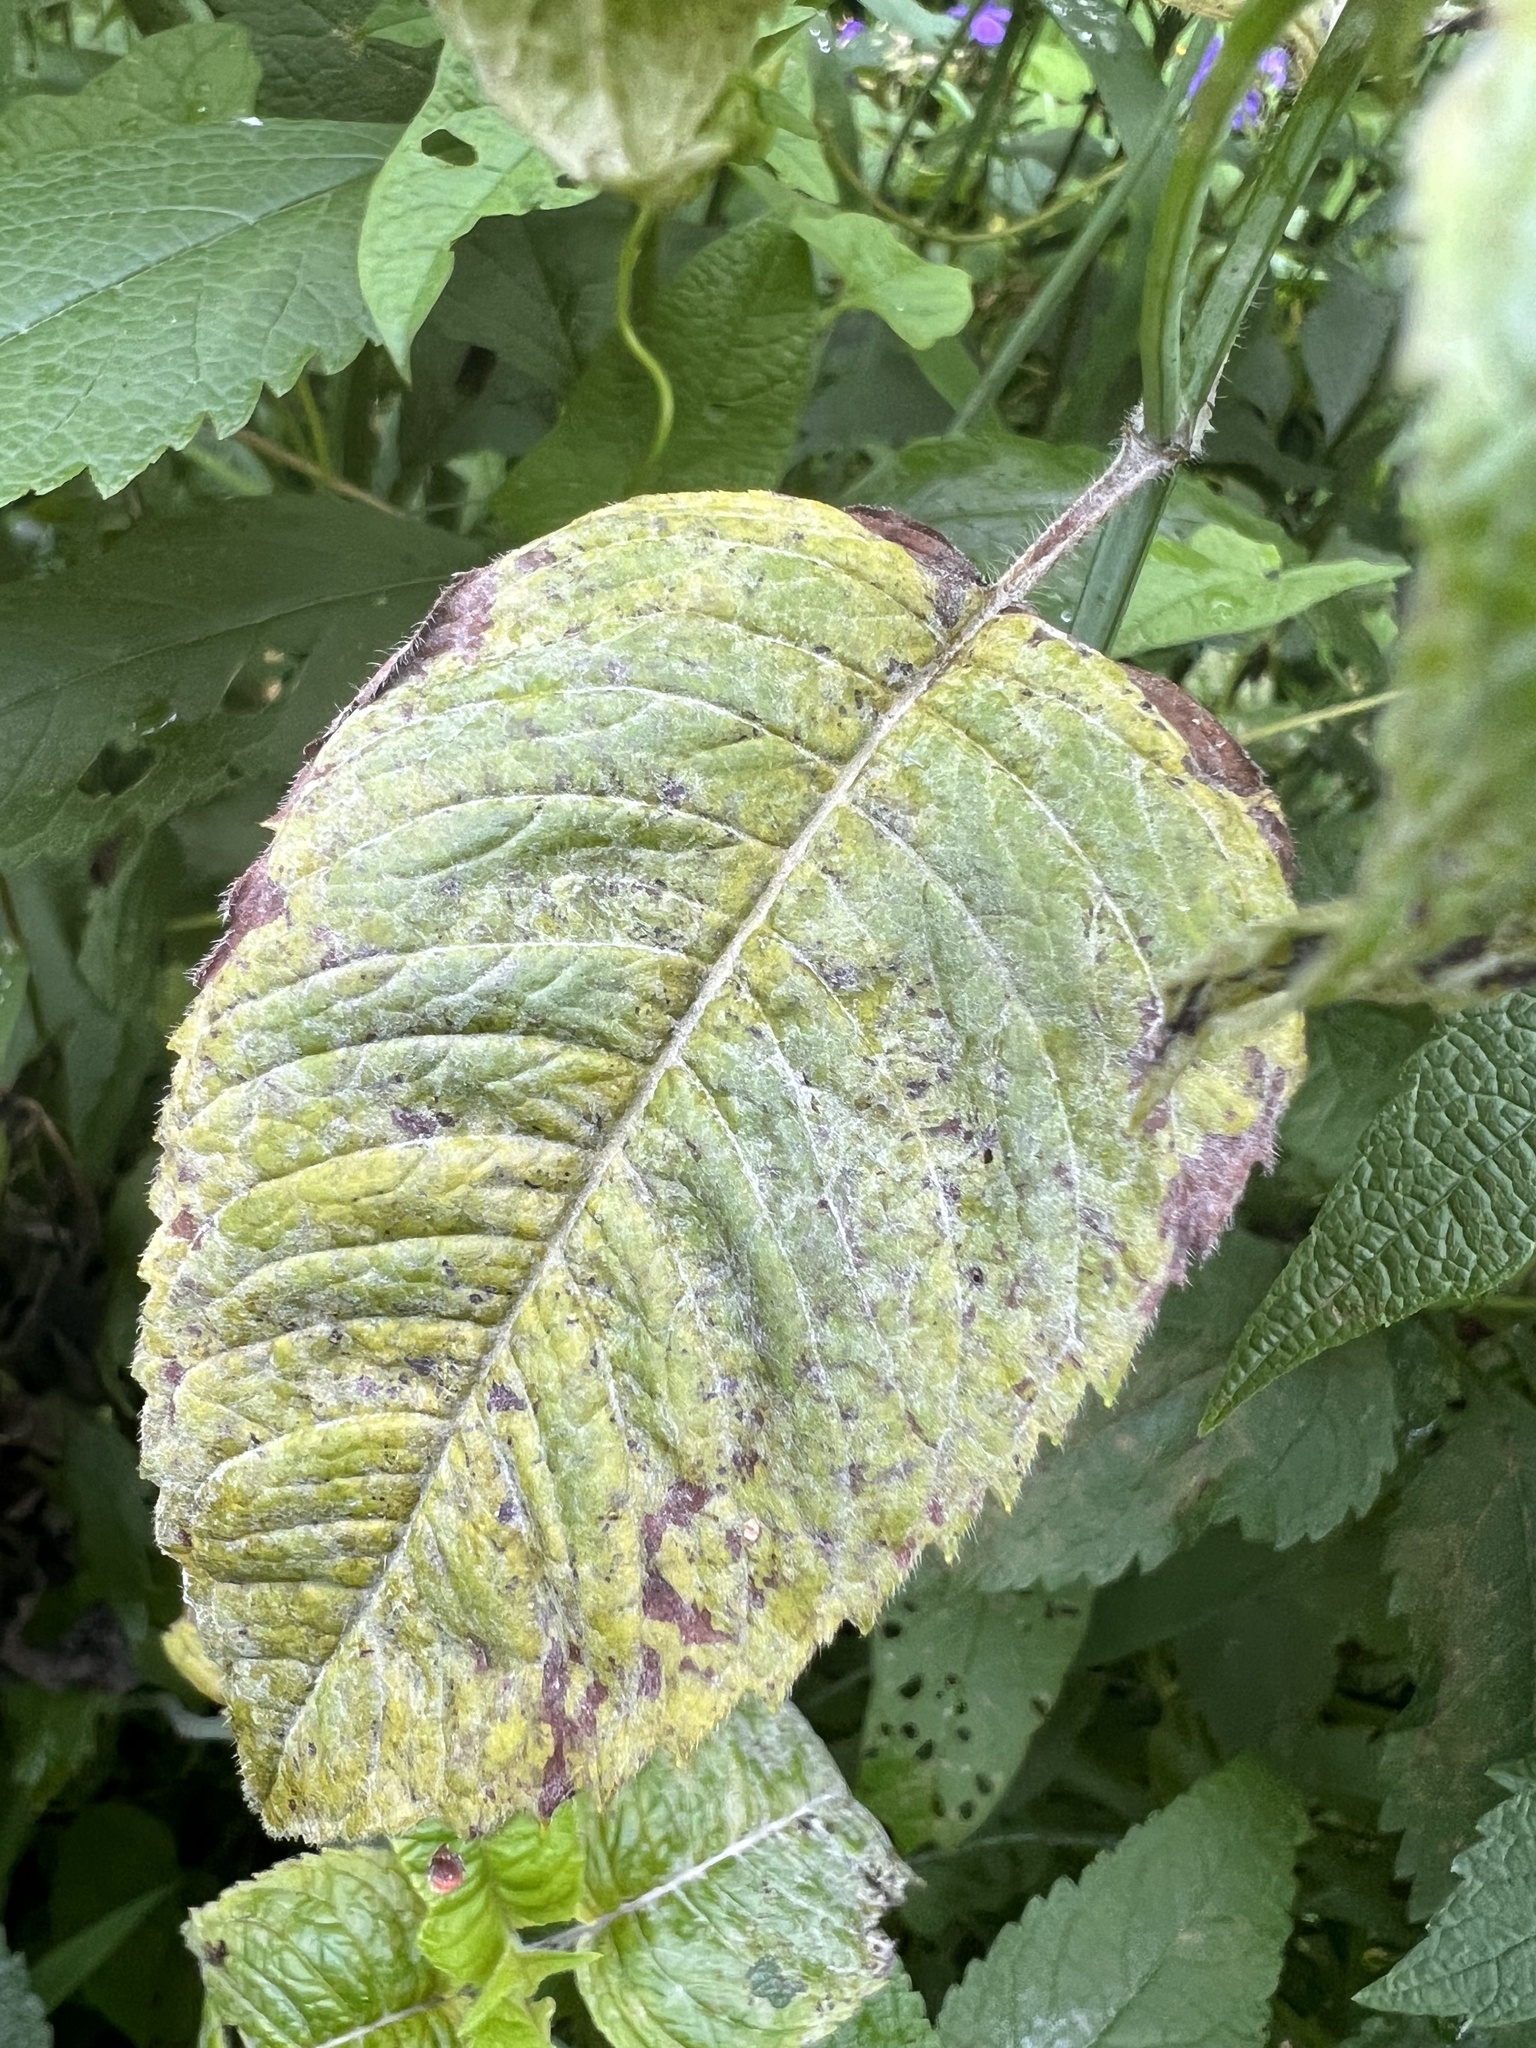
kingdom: Fungi
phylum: Ascomycota
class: Leotiomycetes
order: Helotiales
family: Erysiphaceae
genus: Golovinomyces
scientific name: Golovinomyces monardae
